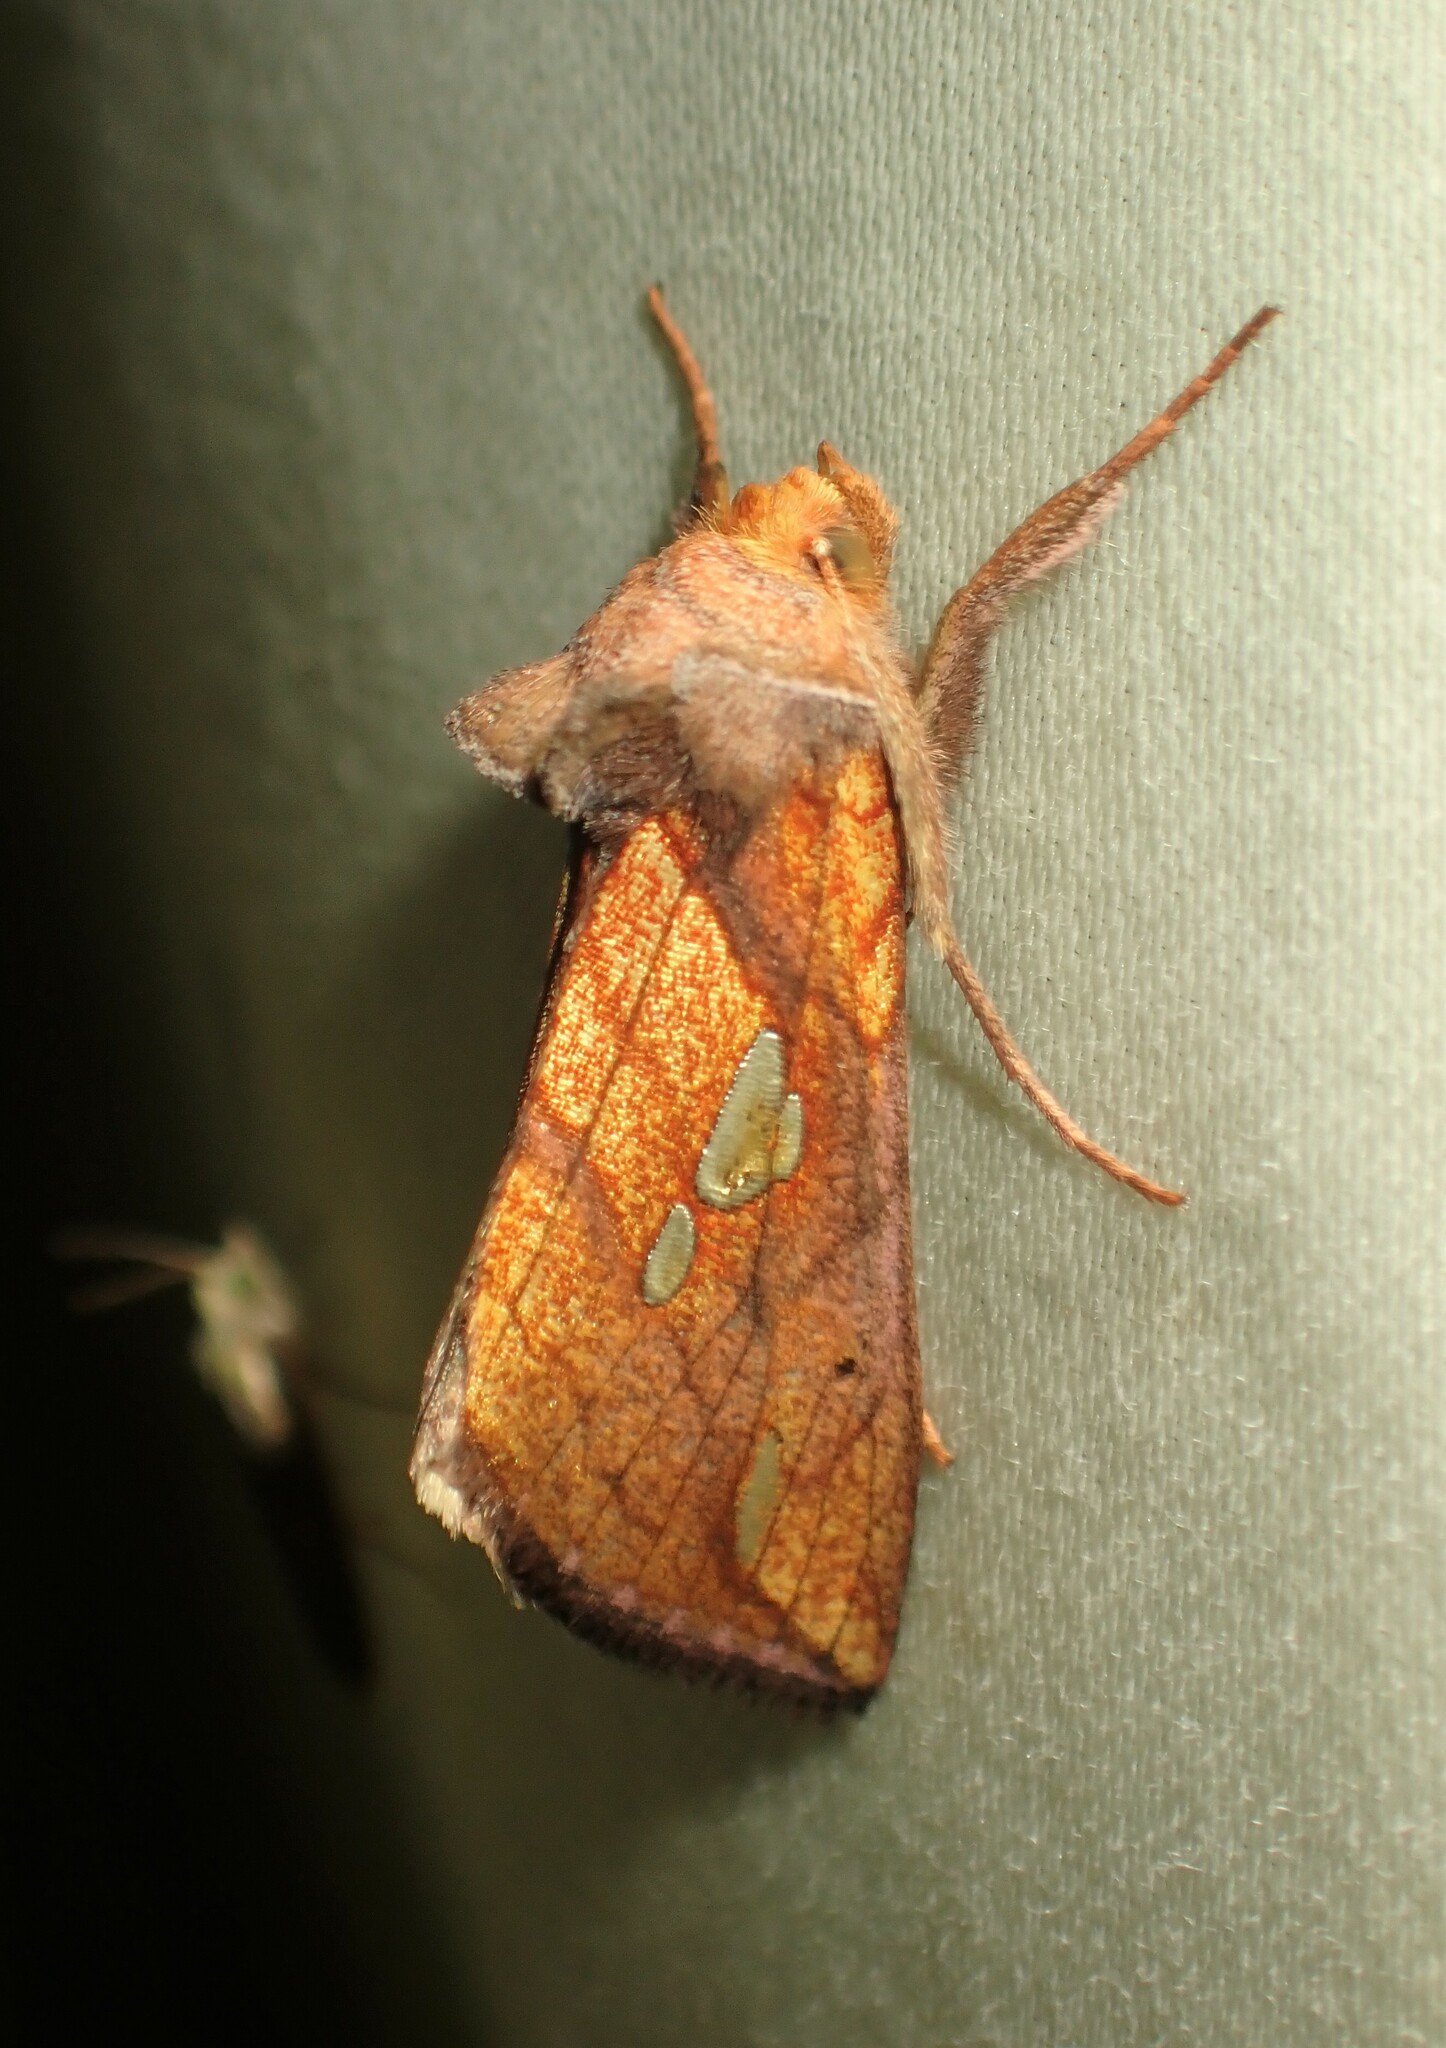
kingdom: Animalia
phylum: Arthropoda
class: Insecta
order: Lepidoptera
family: Noctuidae
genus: Plusia
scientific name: Plusia putnami
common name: Lempke's gold spot
